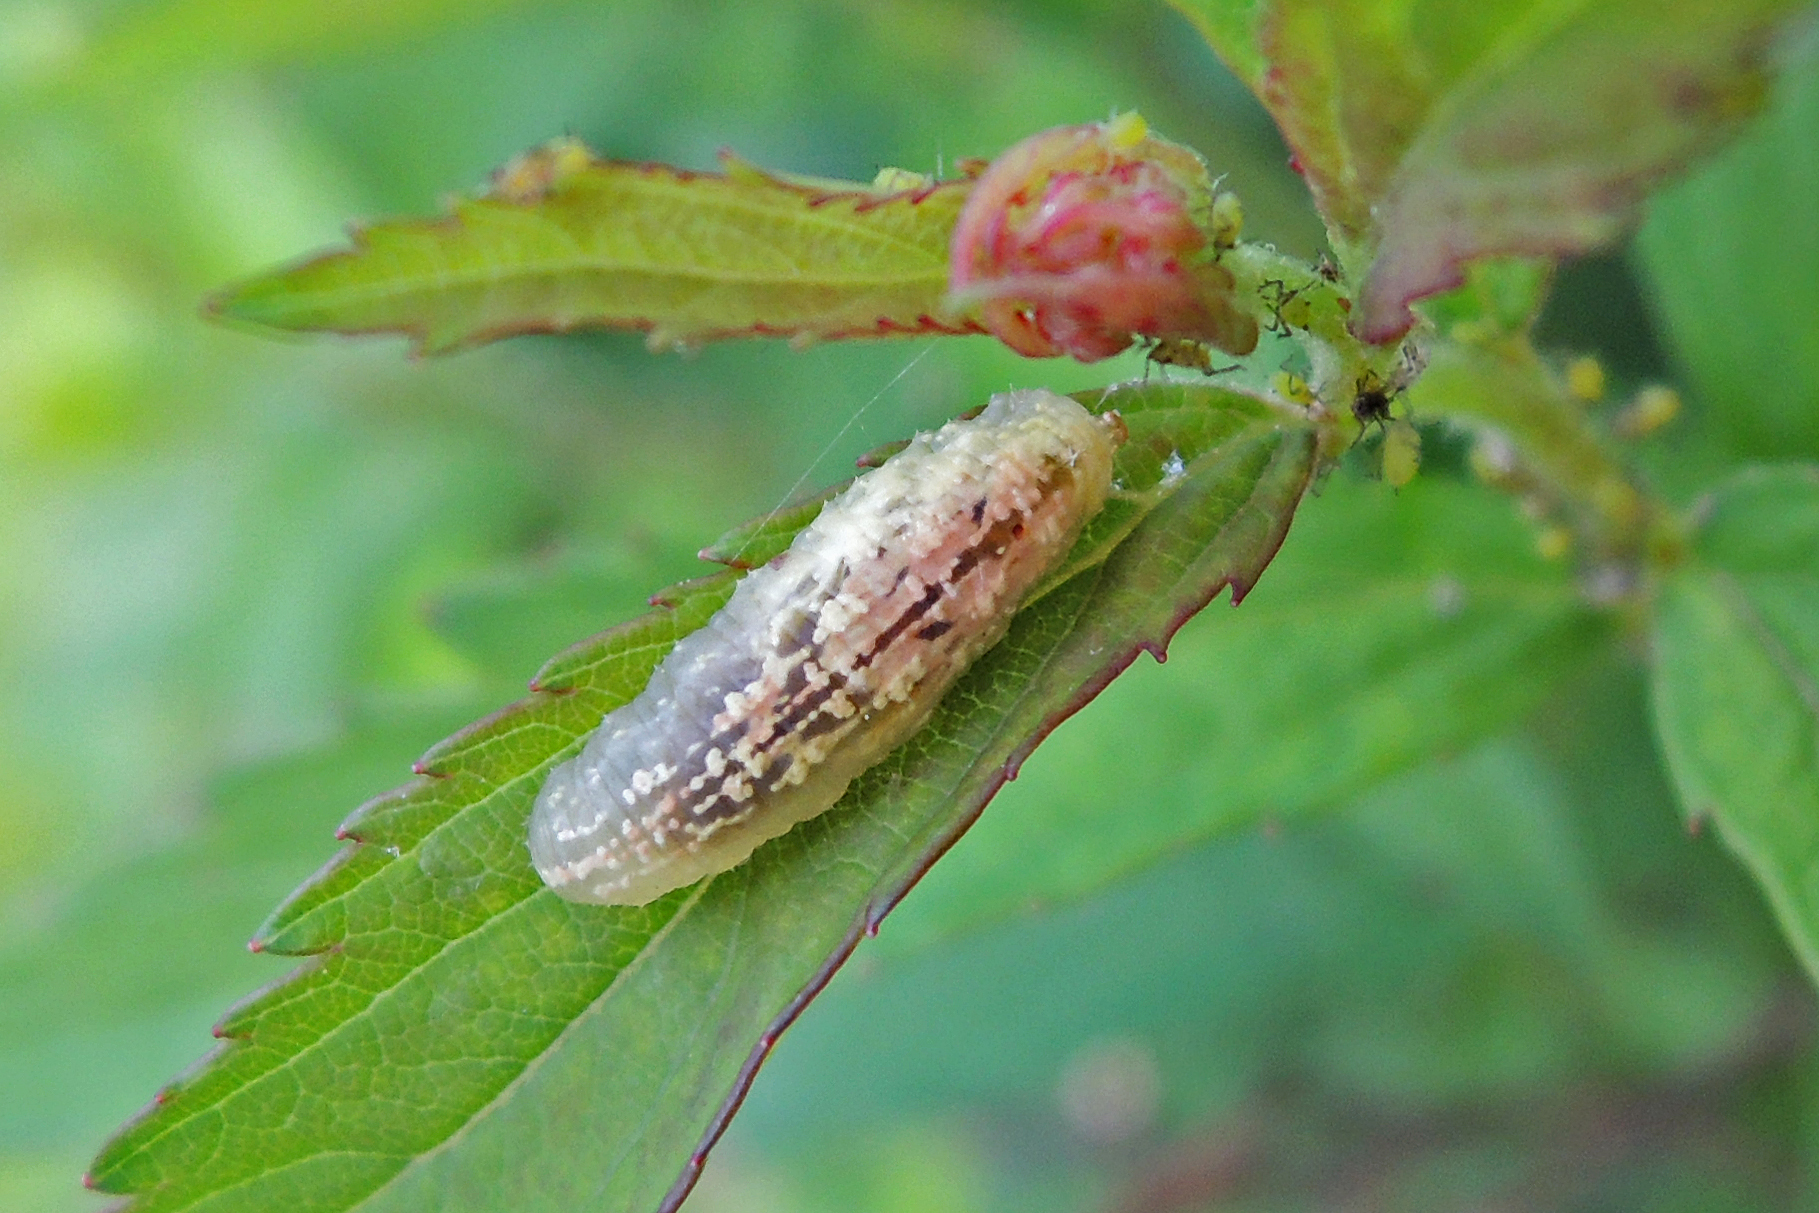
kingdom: Animalia
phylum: Arthropoda
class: Insecta
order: Diptera
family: Syrphidae
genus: Syrphus
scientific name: Syrphus
